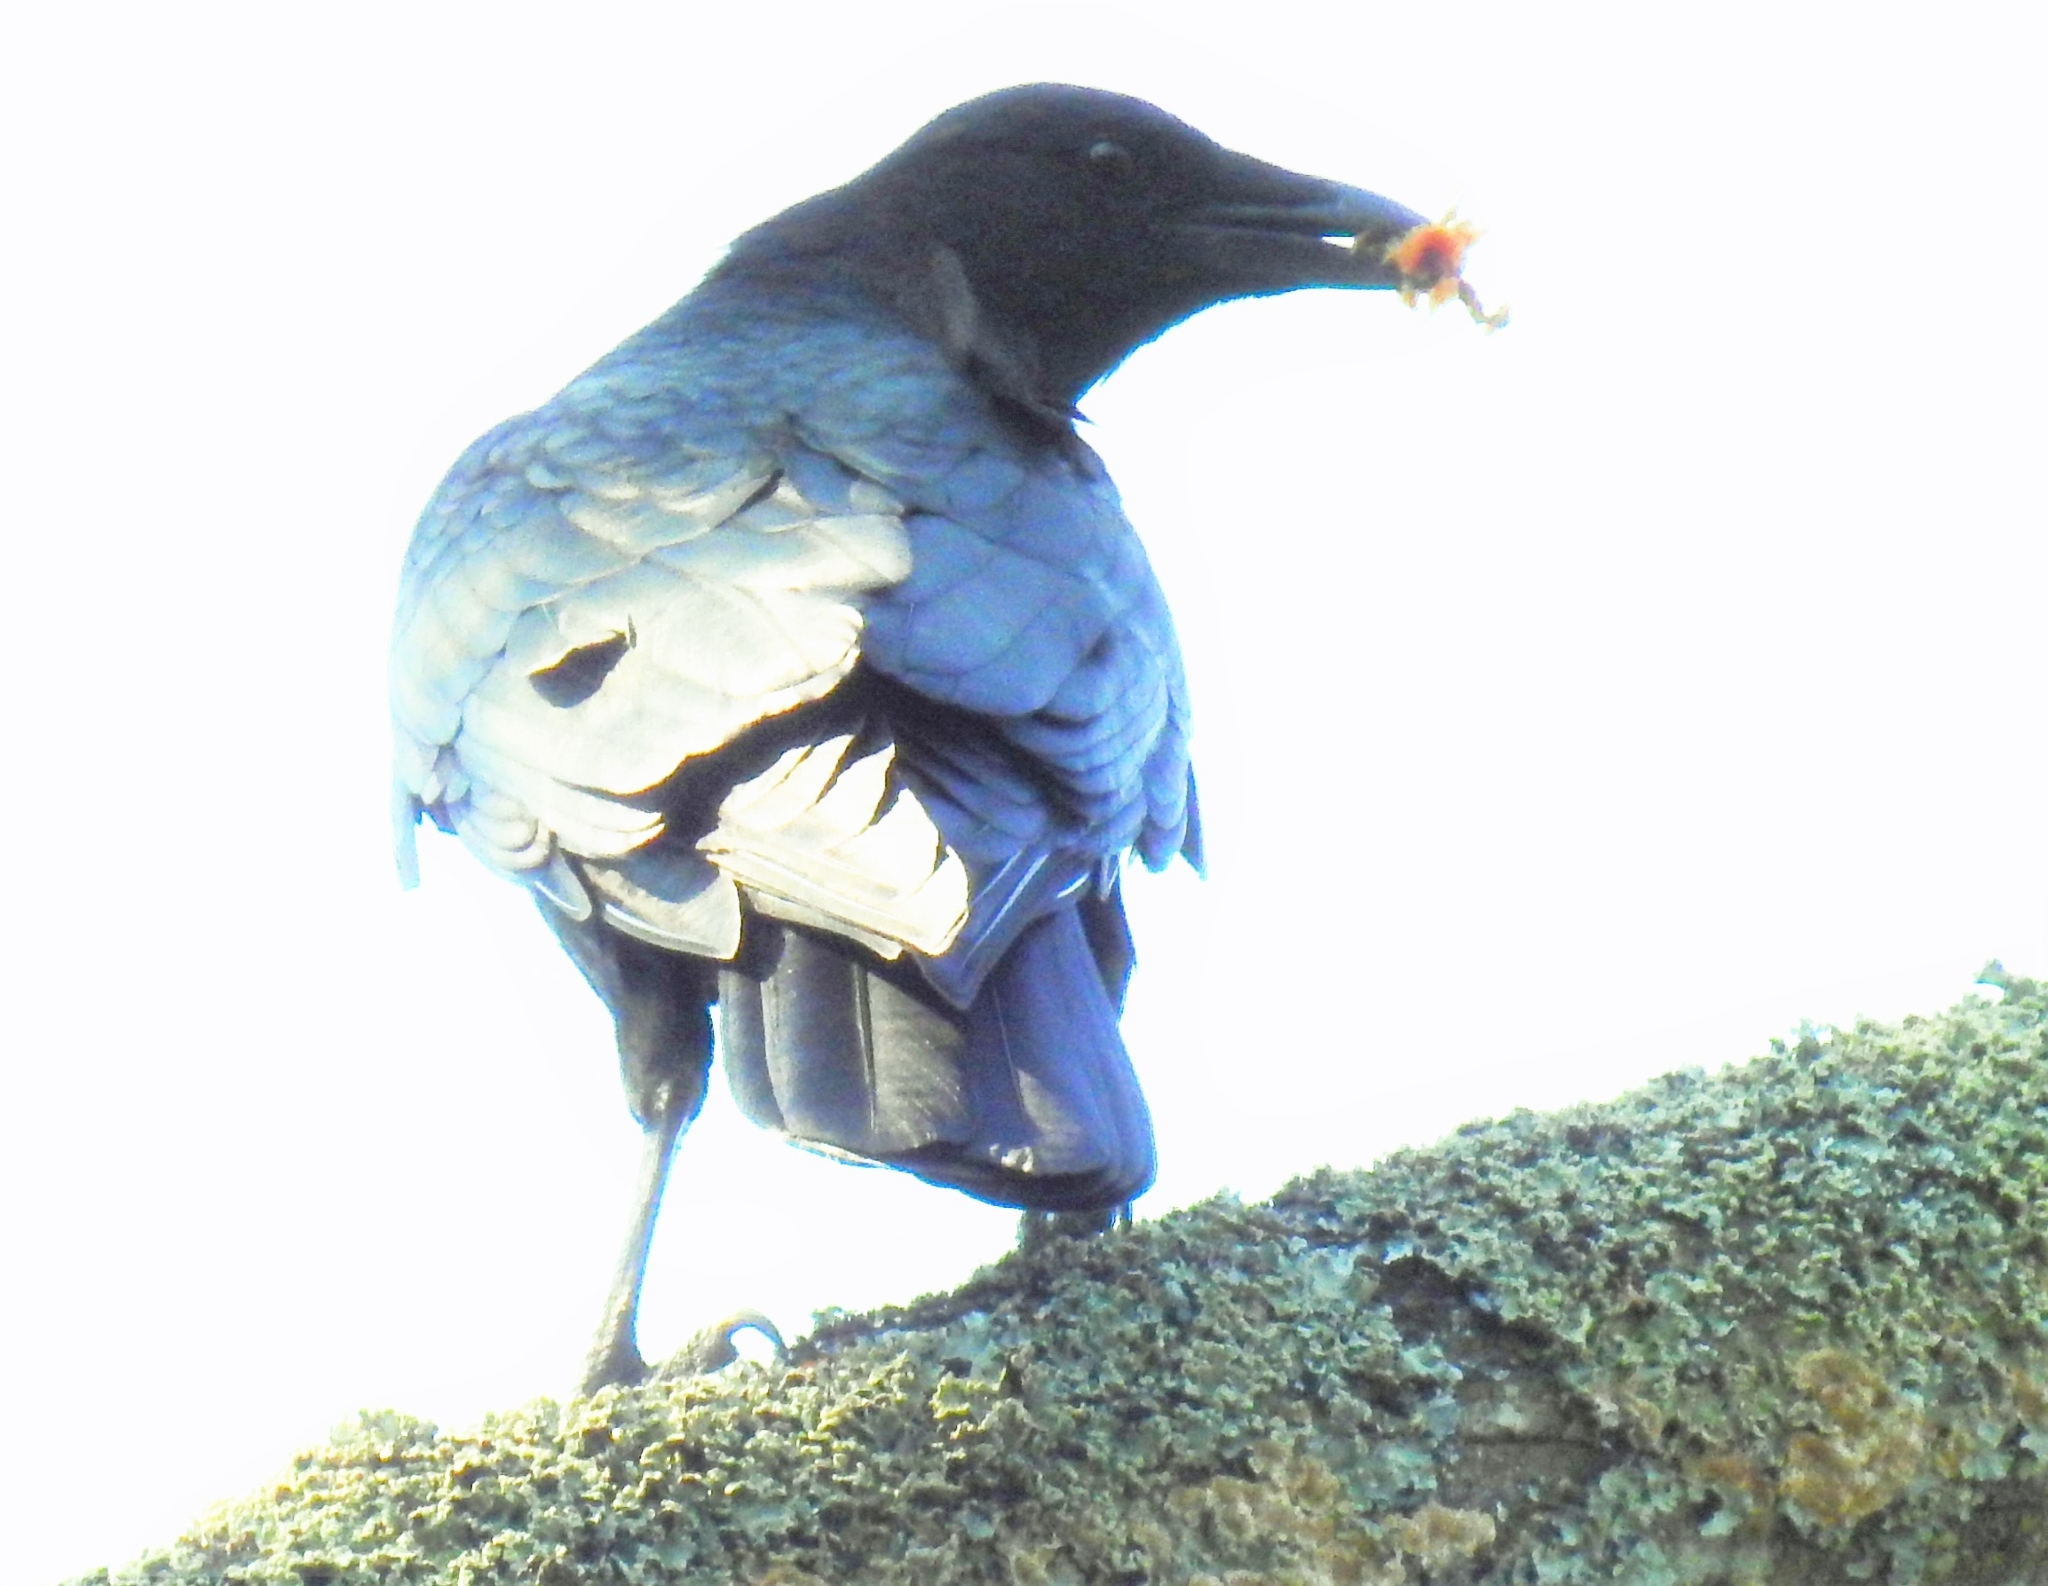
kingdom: Animalia
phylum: Chordata
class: Aves
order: Passeriformes
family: Corvidae
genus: Corvus
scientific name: Corvus brachyrhynchos
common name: American crow
